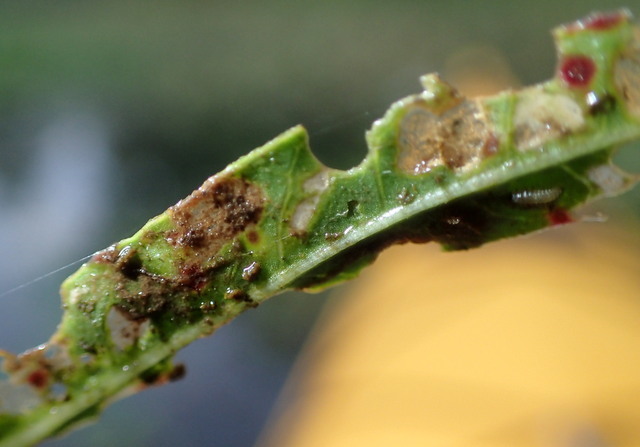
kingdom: Animalia
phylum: Arthropoda
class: Insecta
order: Coleoptera
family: Chrysomelidae
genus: Agasicles
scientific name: Agasicles hygrophila
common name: Alligatorweed flea beetle
